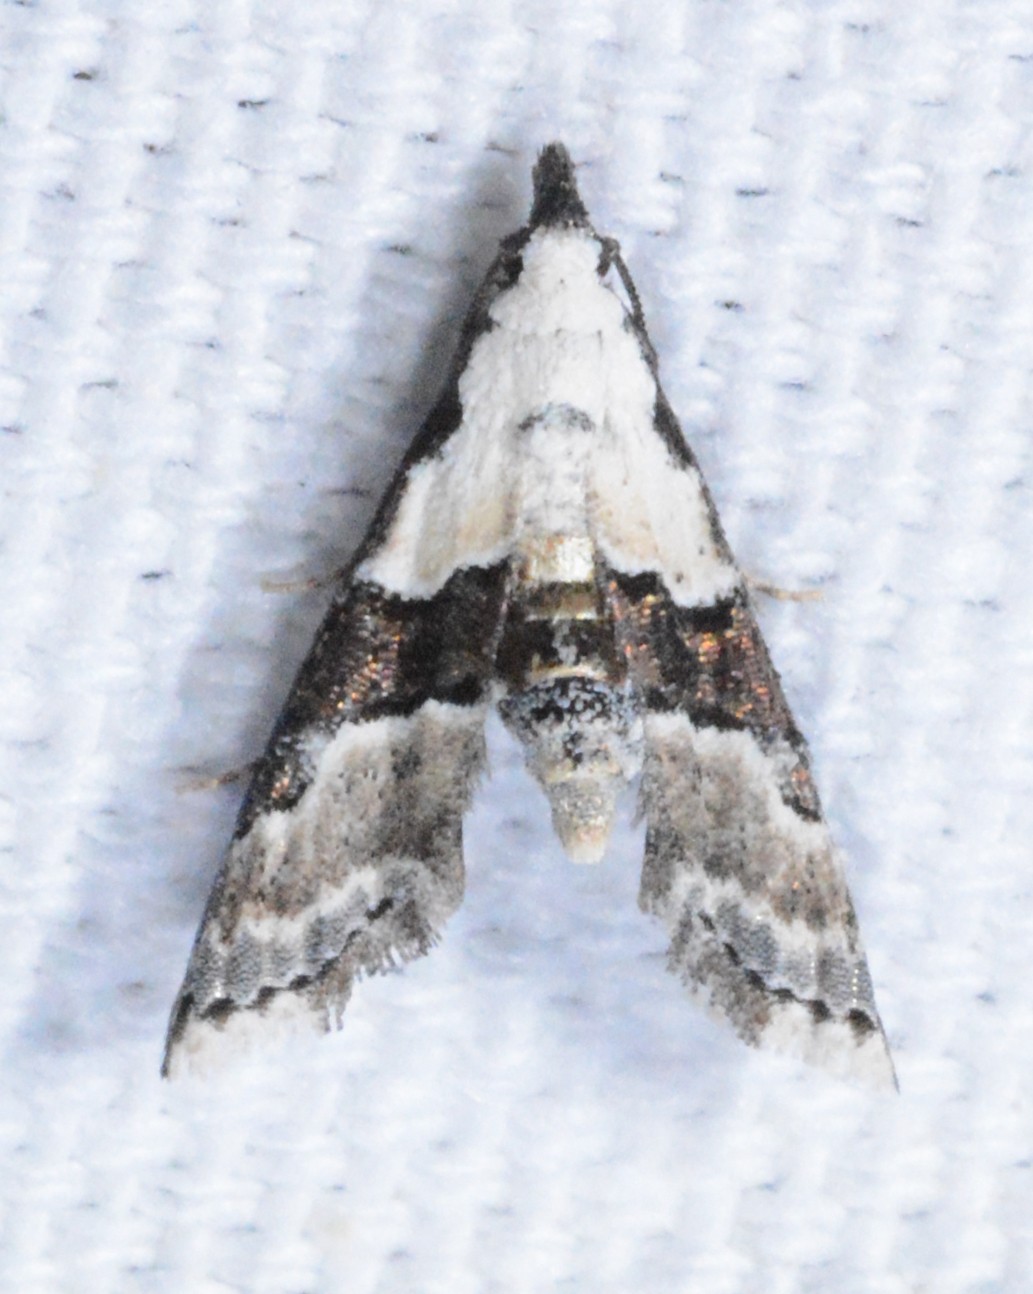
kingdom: Animalia
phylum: Arthropoda
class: Insecta
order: Lepidoptera
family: Noctuidae
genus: Nigetia
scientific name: Nigetia formosalis
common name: Thin-winged owlet
